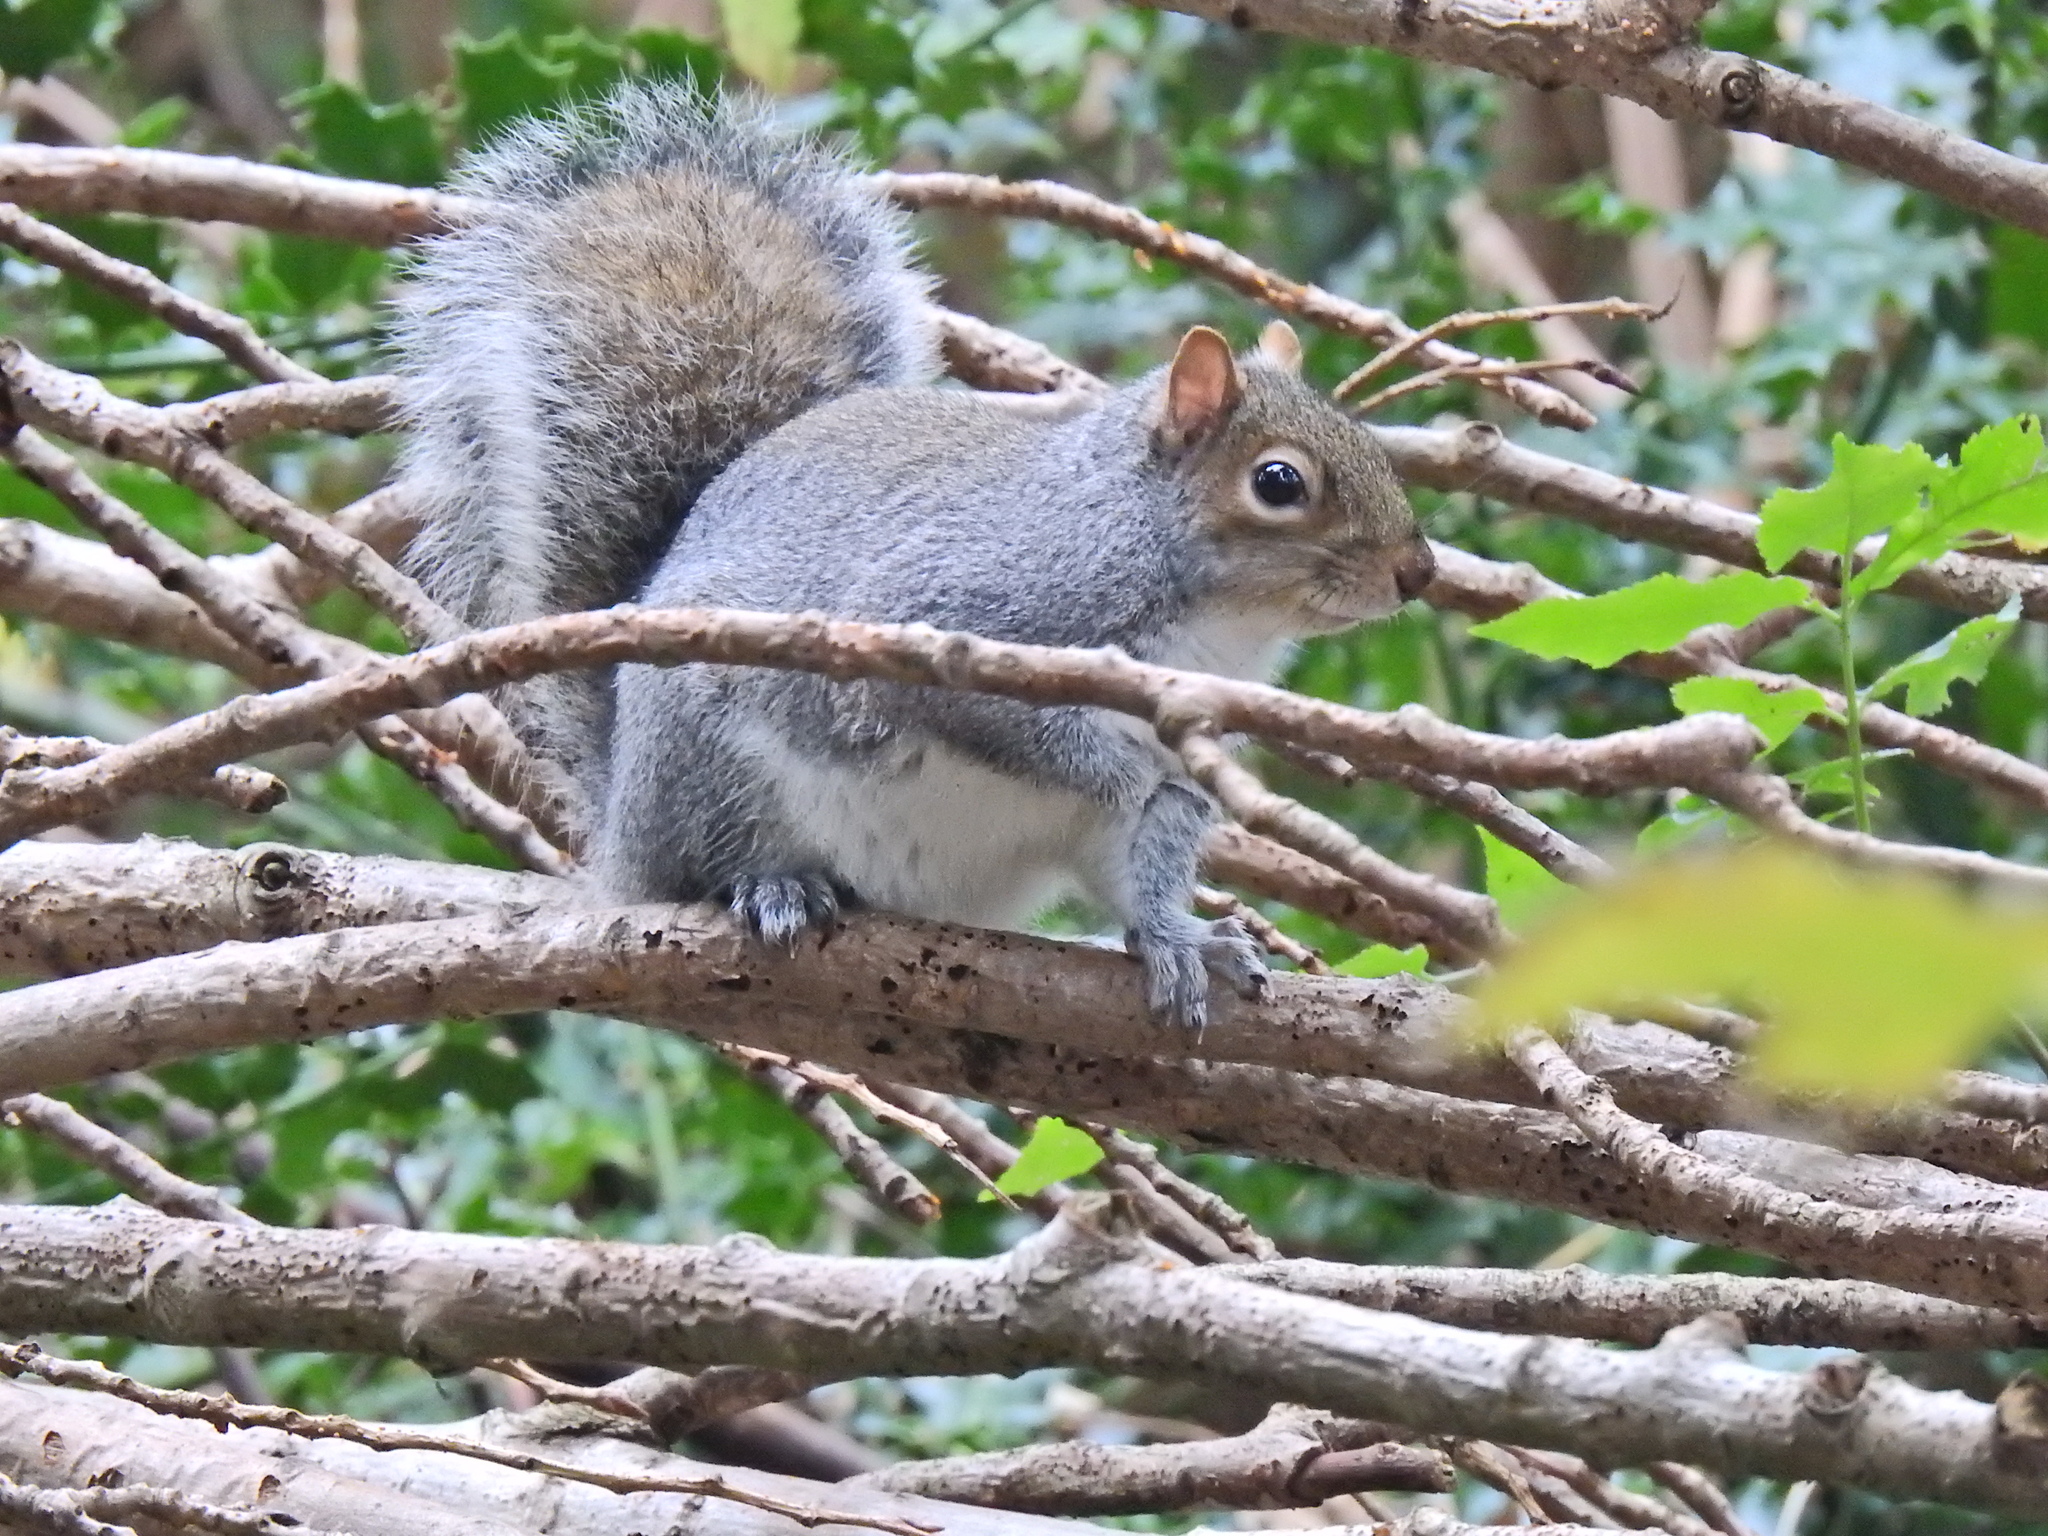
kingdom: Animalia
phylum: Chordata
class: Mammalia
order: Rodentia
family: Sciuridae
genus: Sciurus
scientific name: Sciurus carolinensis
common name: Eastern gray squirrel
